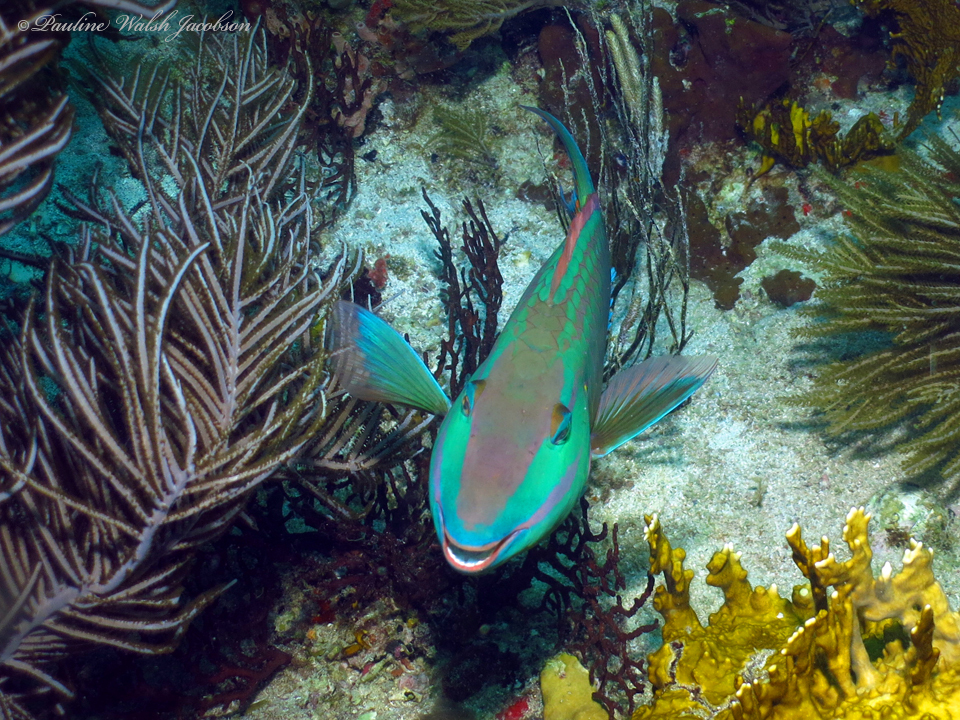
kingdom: Animalia
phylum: Chordata
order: Perciformes
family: Scaridae
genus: Sparisoma
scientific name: Sparisoma viride
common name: Stoplight parrotfish
